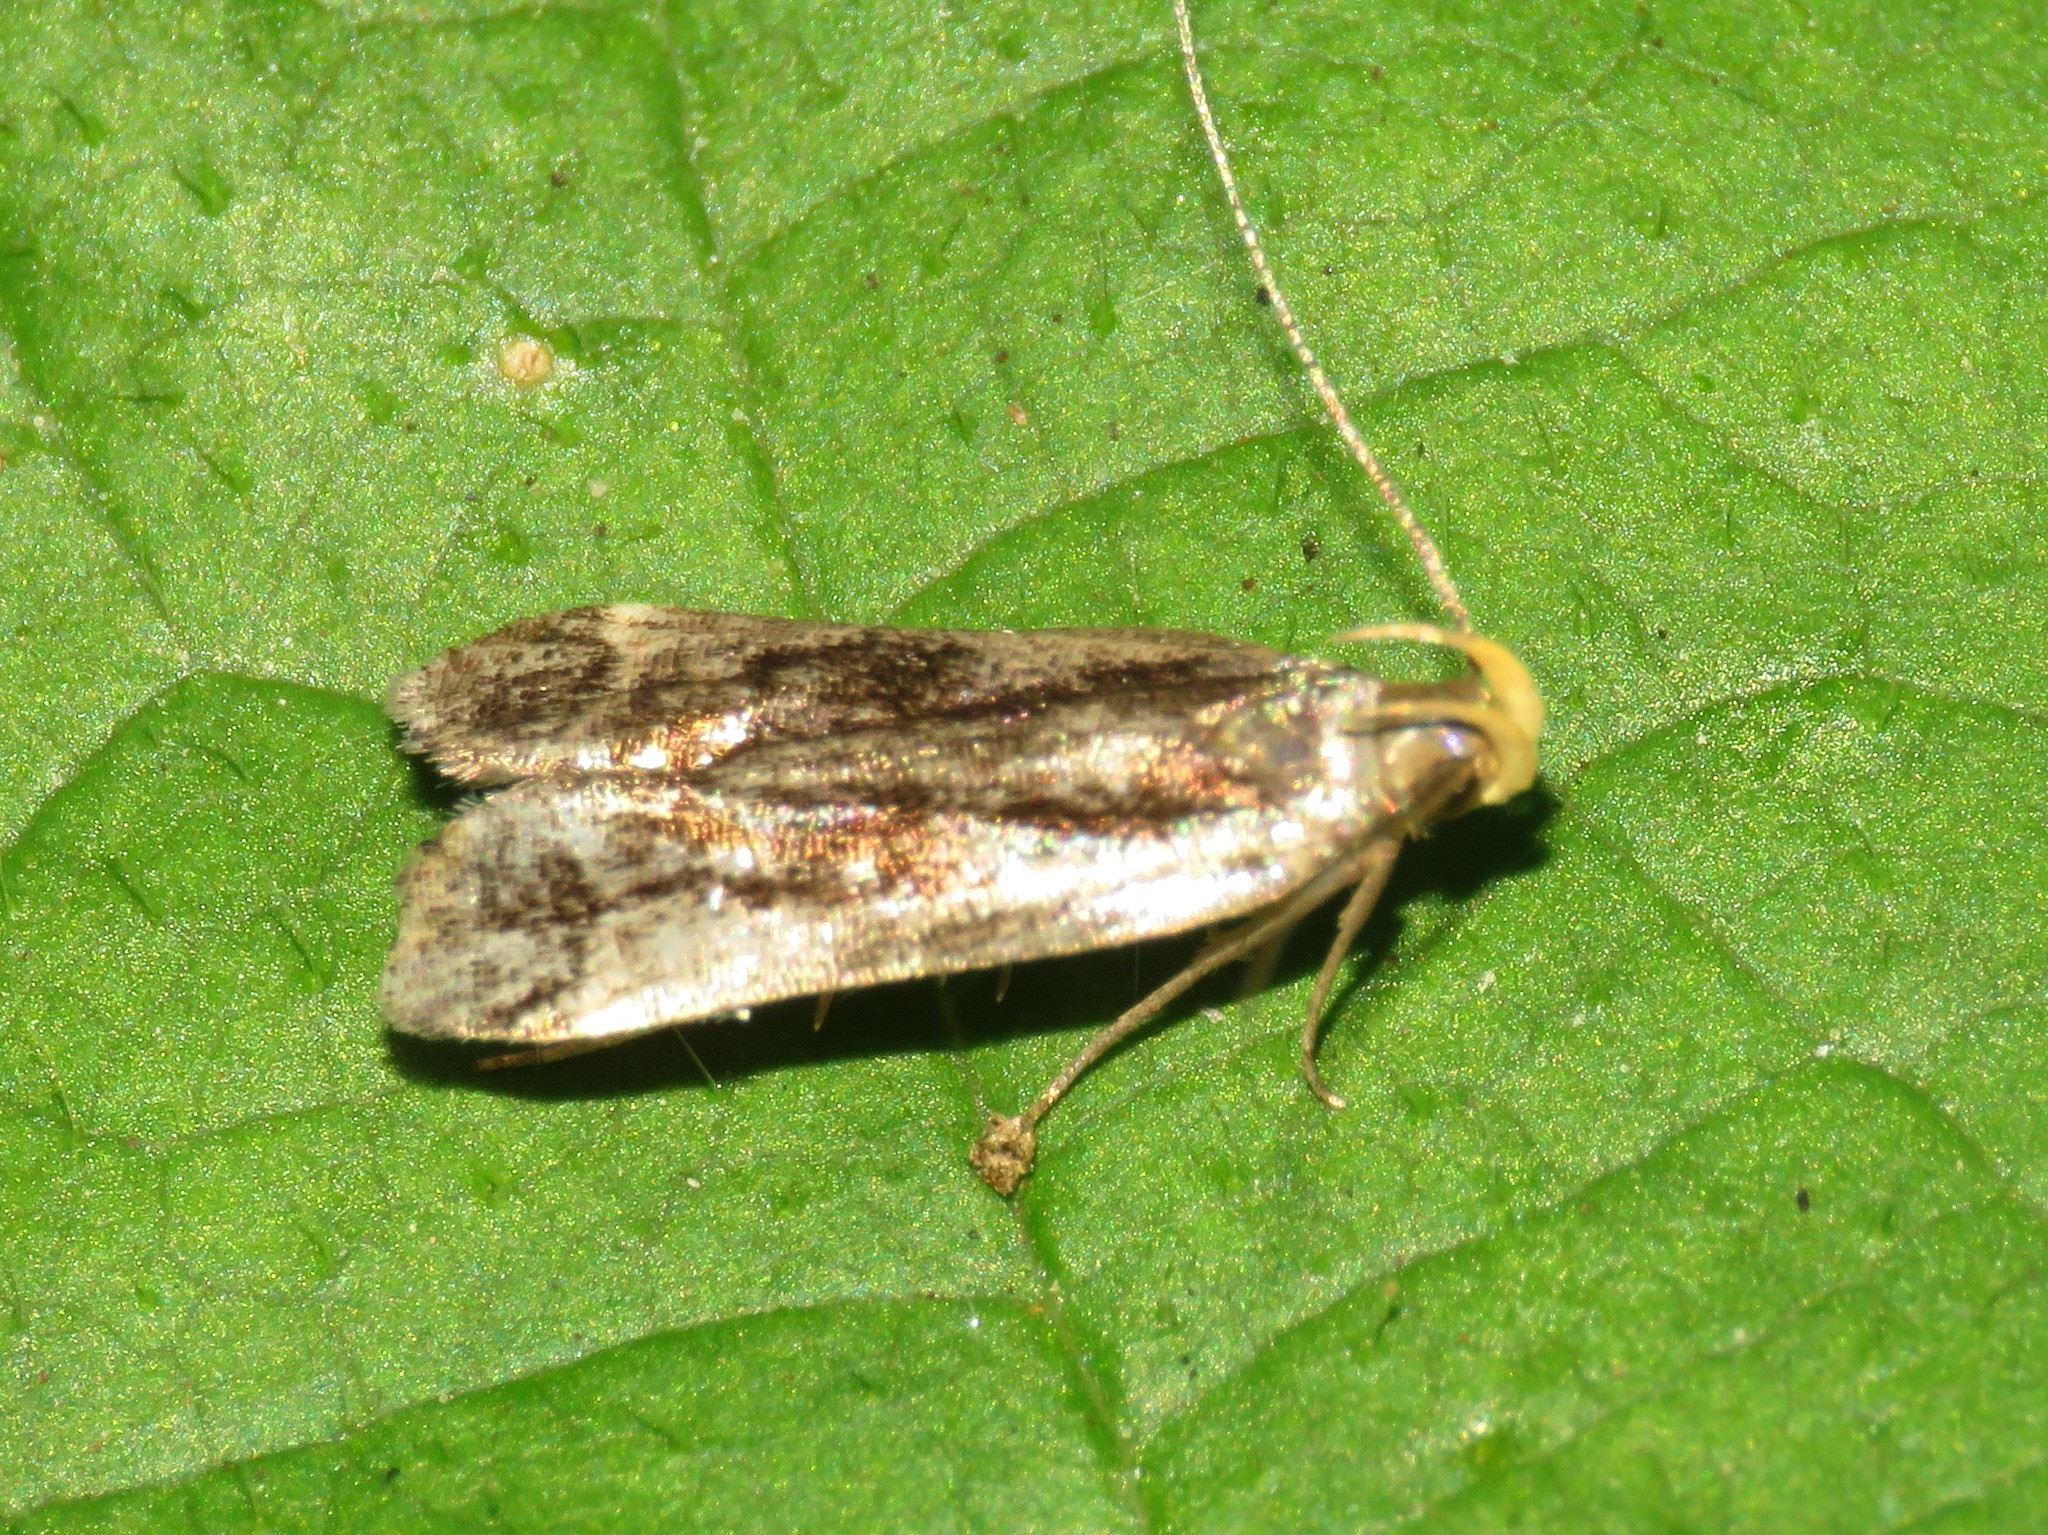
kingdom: Animalia
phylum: Arthropoda
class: Insecta
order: Lepidoptera
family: Gelechiidae
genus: Dichomeris
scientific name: Dichomeris ochripalpella
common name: Shining dichomeris moth
